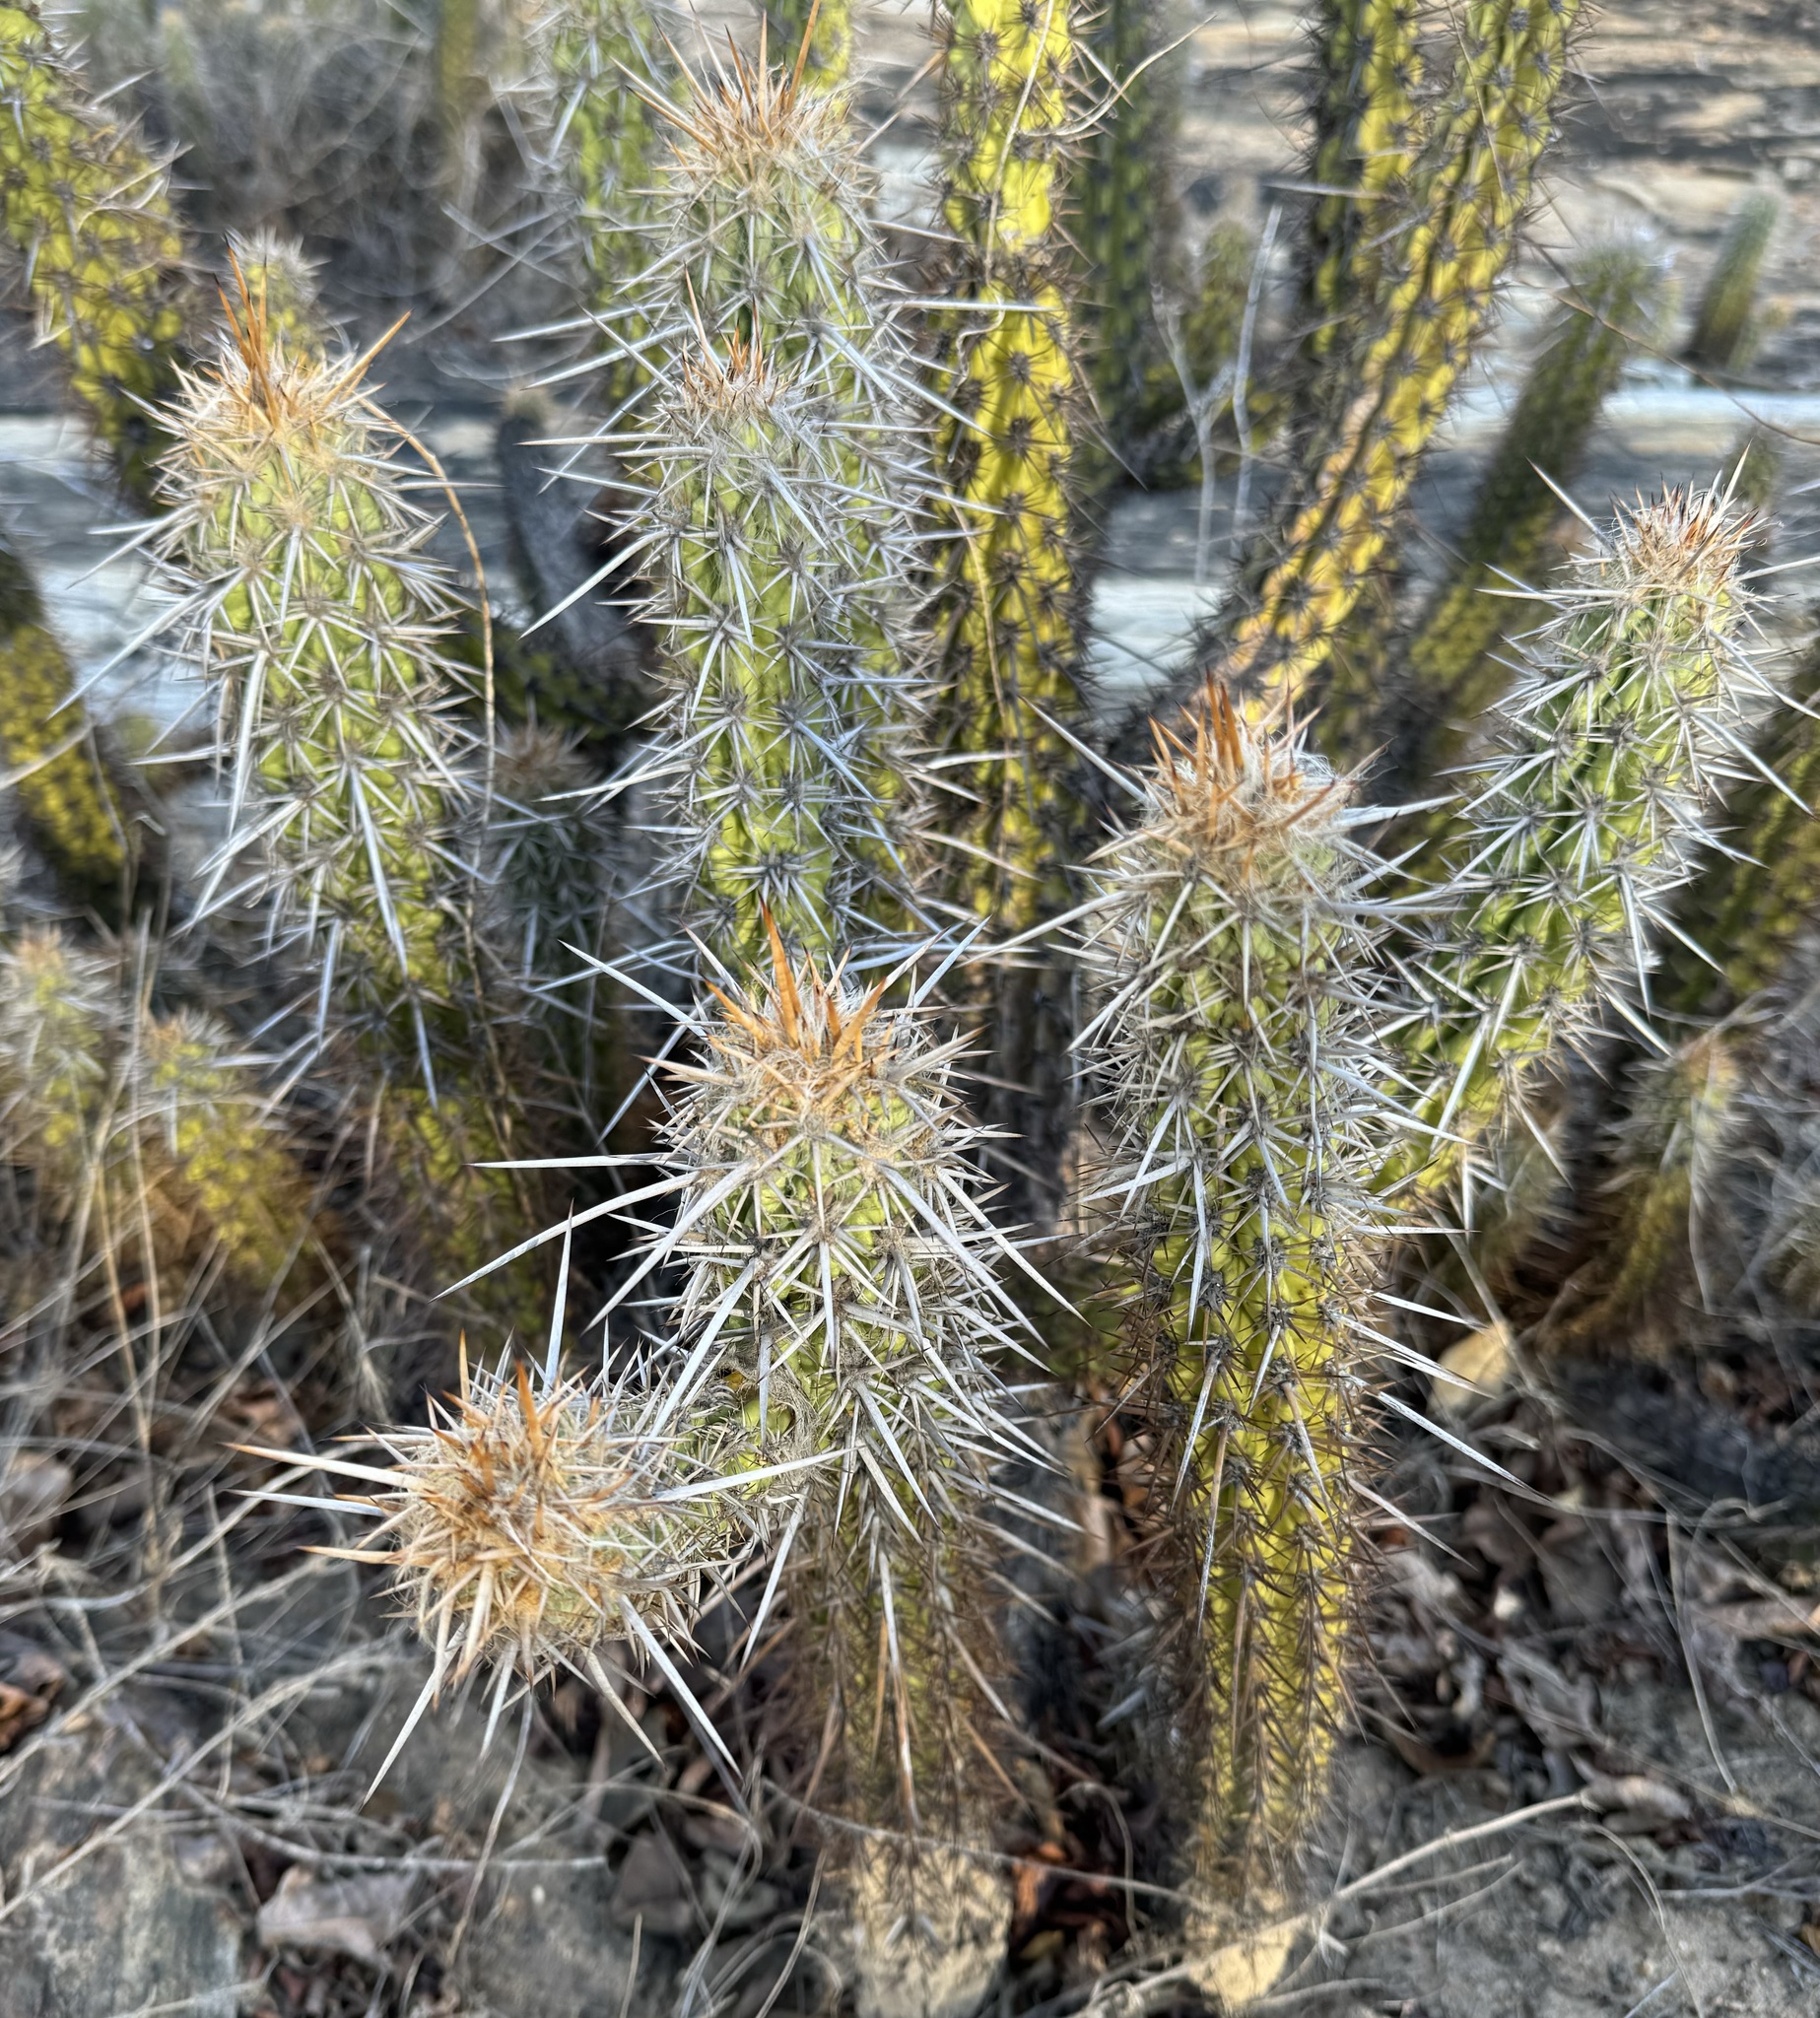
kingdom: Plantae
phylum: Tracheophyta
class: Magnoliopsida
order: Caryophyllales
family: Cactaceae
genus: Xiquexique
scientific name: Xiquexique gounellei
